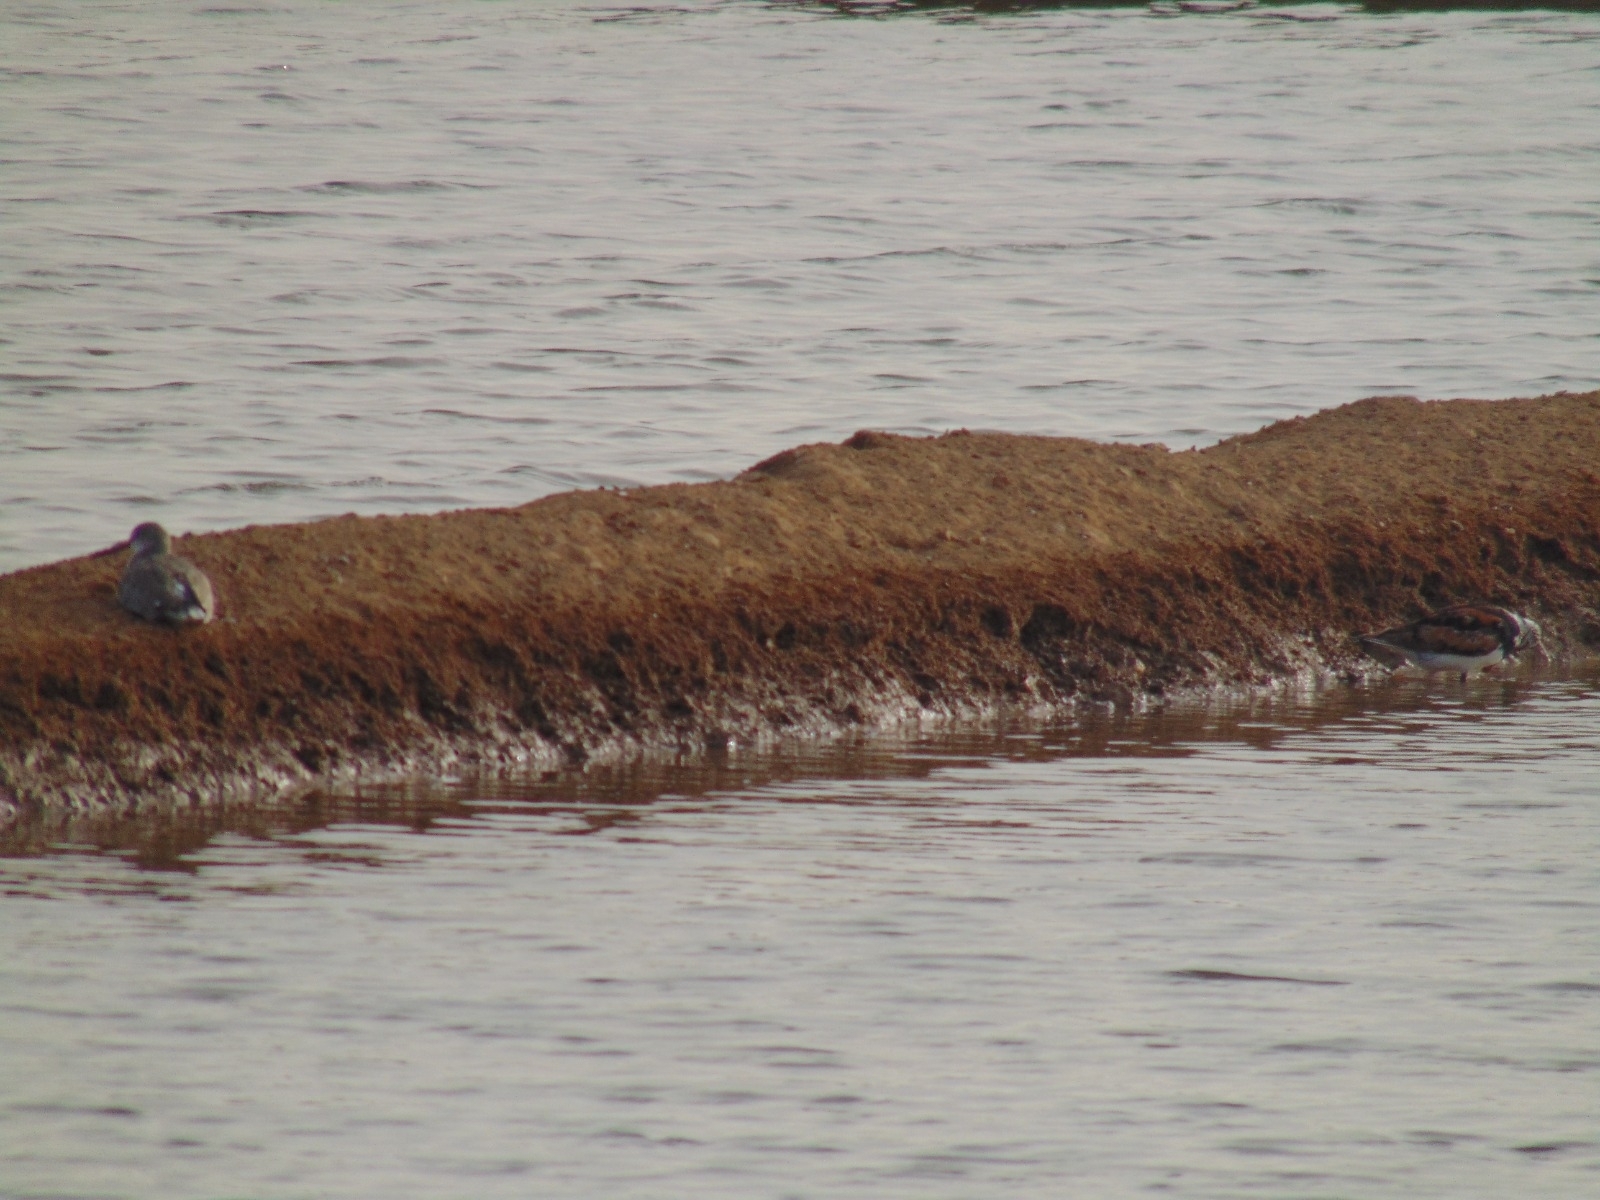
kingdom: Animalia
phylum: Chordata
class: Aves
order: Charadriiformes
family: Scolopacidae
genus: Arenaria
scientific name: Arenaria interpres
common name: Ruddy turnstone
